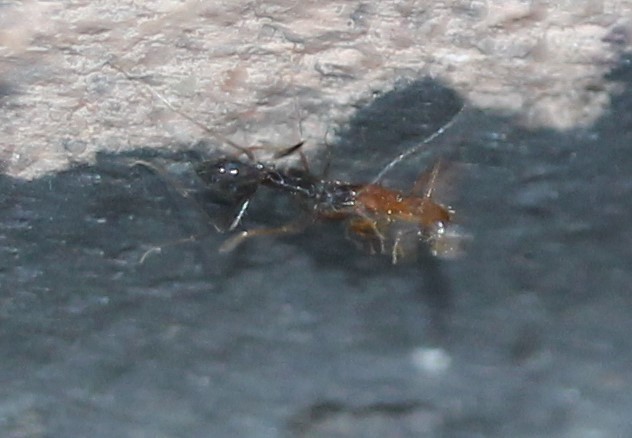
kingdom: Animalia
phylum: Arthropoda
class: Insecta
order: Hymenoptera
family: Formicidae
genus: Paratrechina
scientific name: Paratrechina longicornis
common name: Longhorned crazy ant
